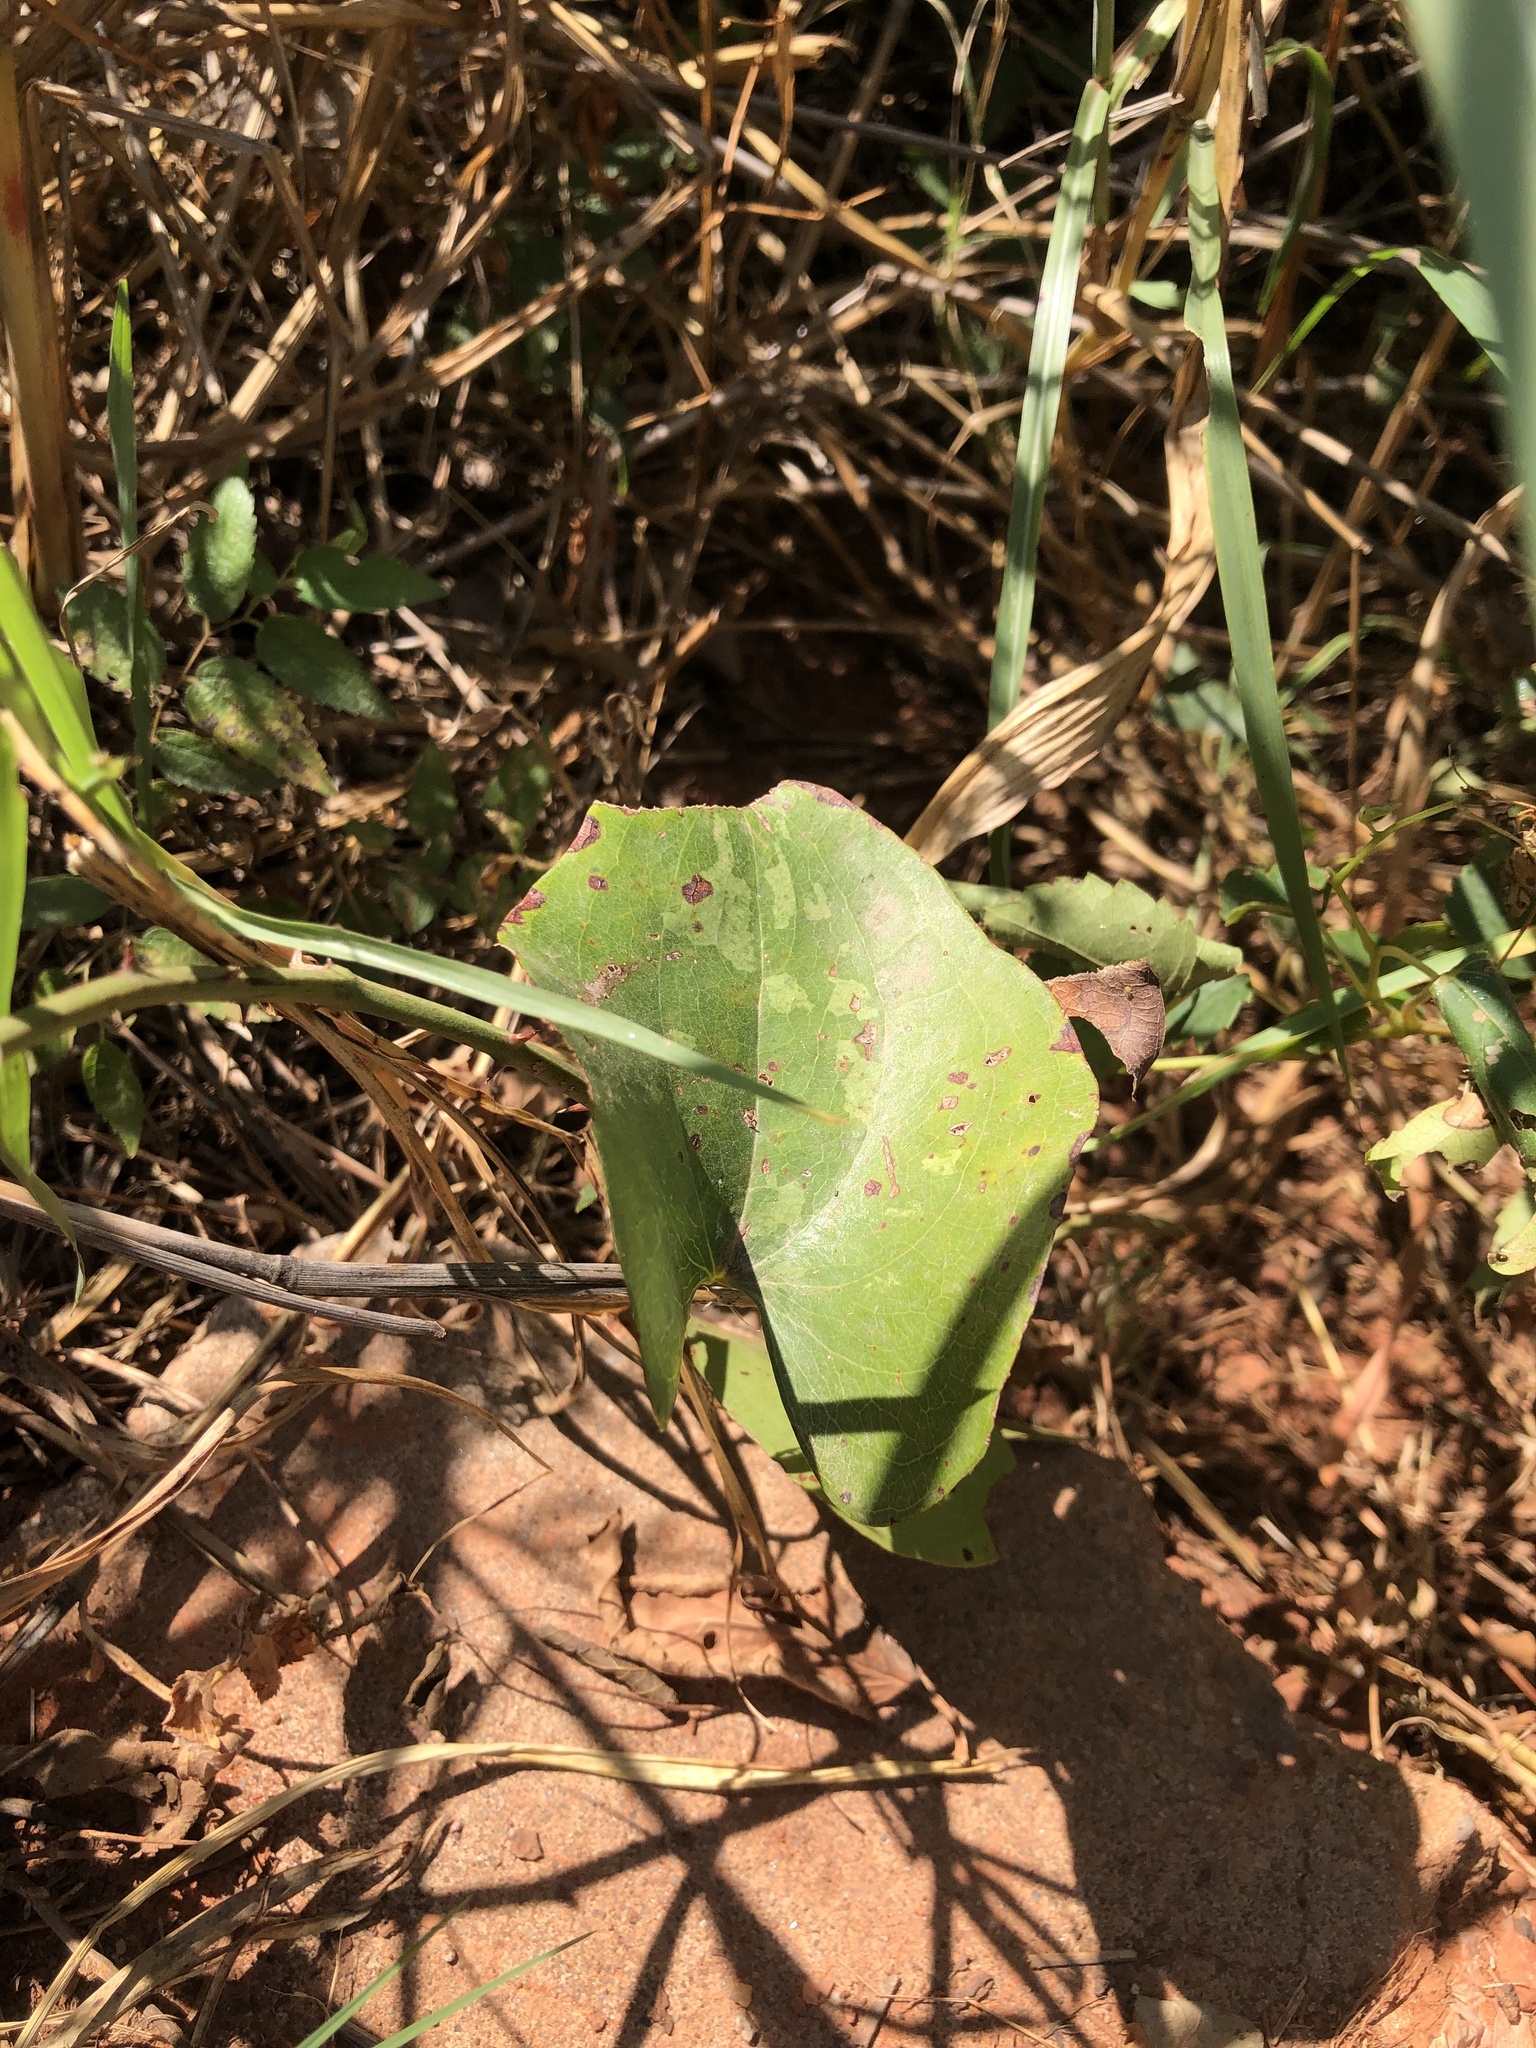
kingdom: Plantae
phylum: Tracheophyta
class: Liliopsida
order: Liliales
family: Smilacaceae
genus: Smilax
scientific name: Smilax bona-nox
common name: Catbrier
